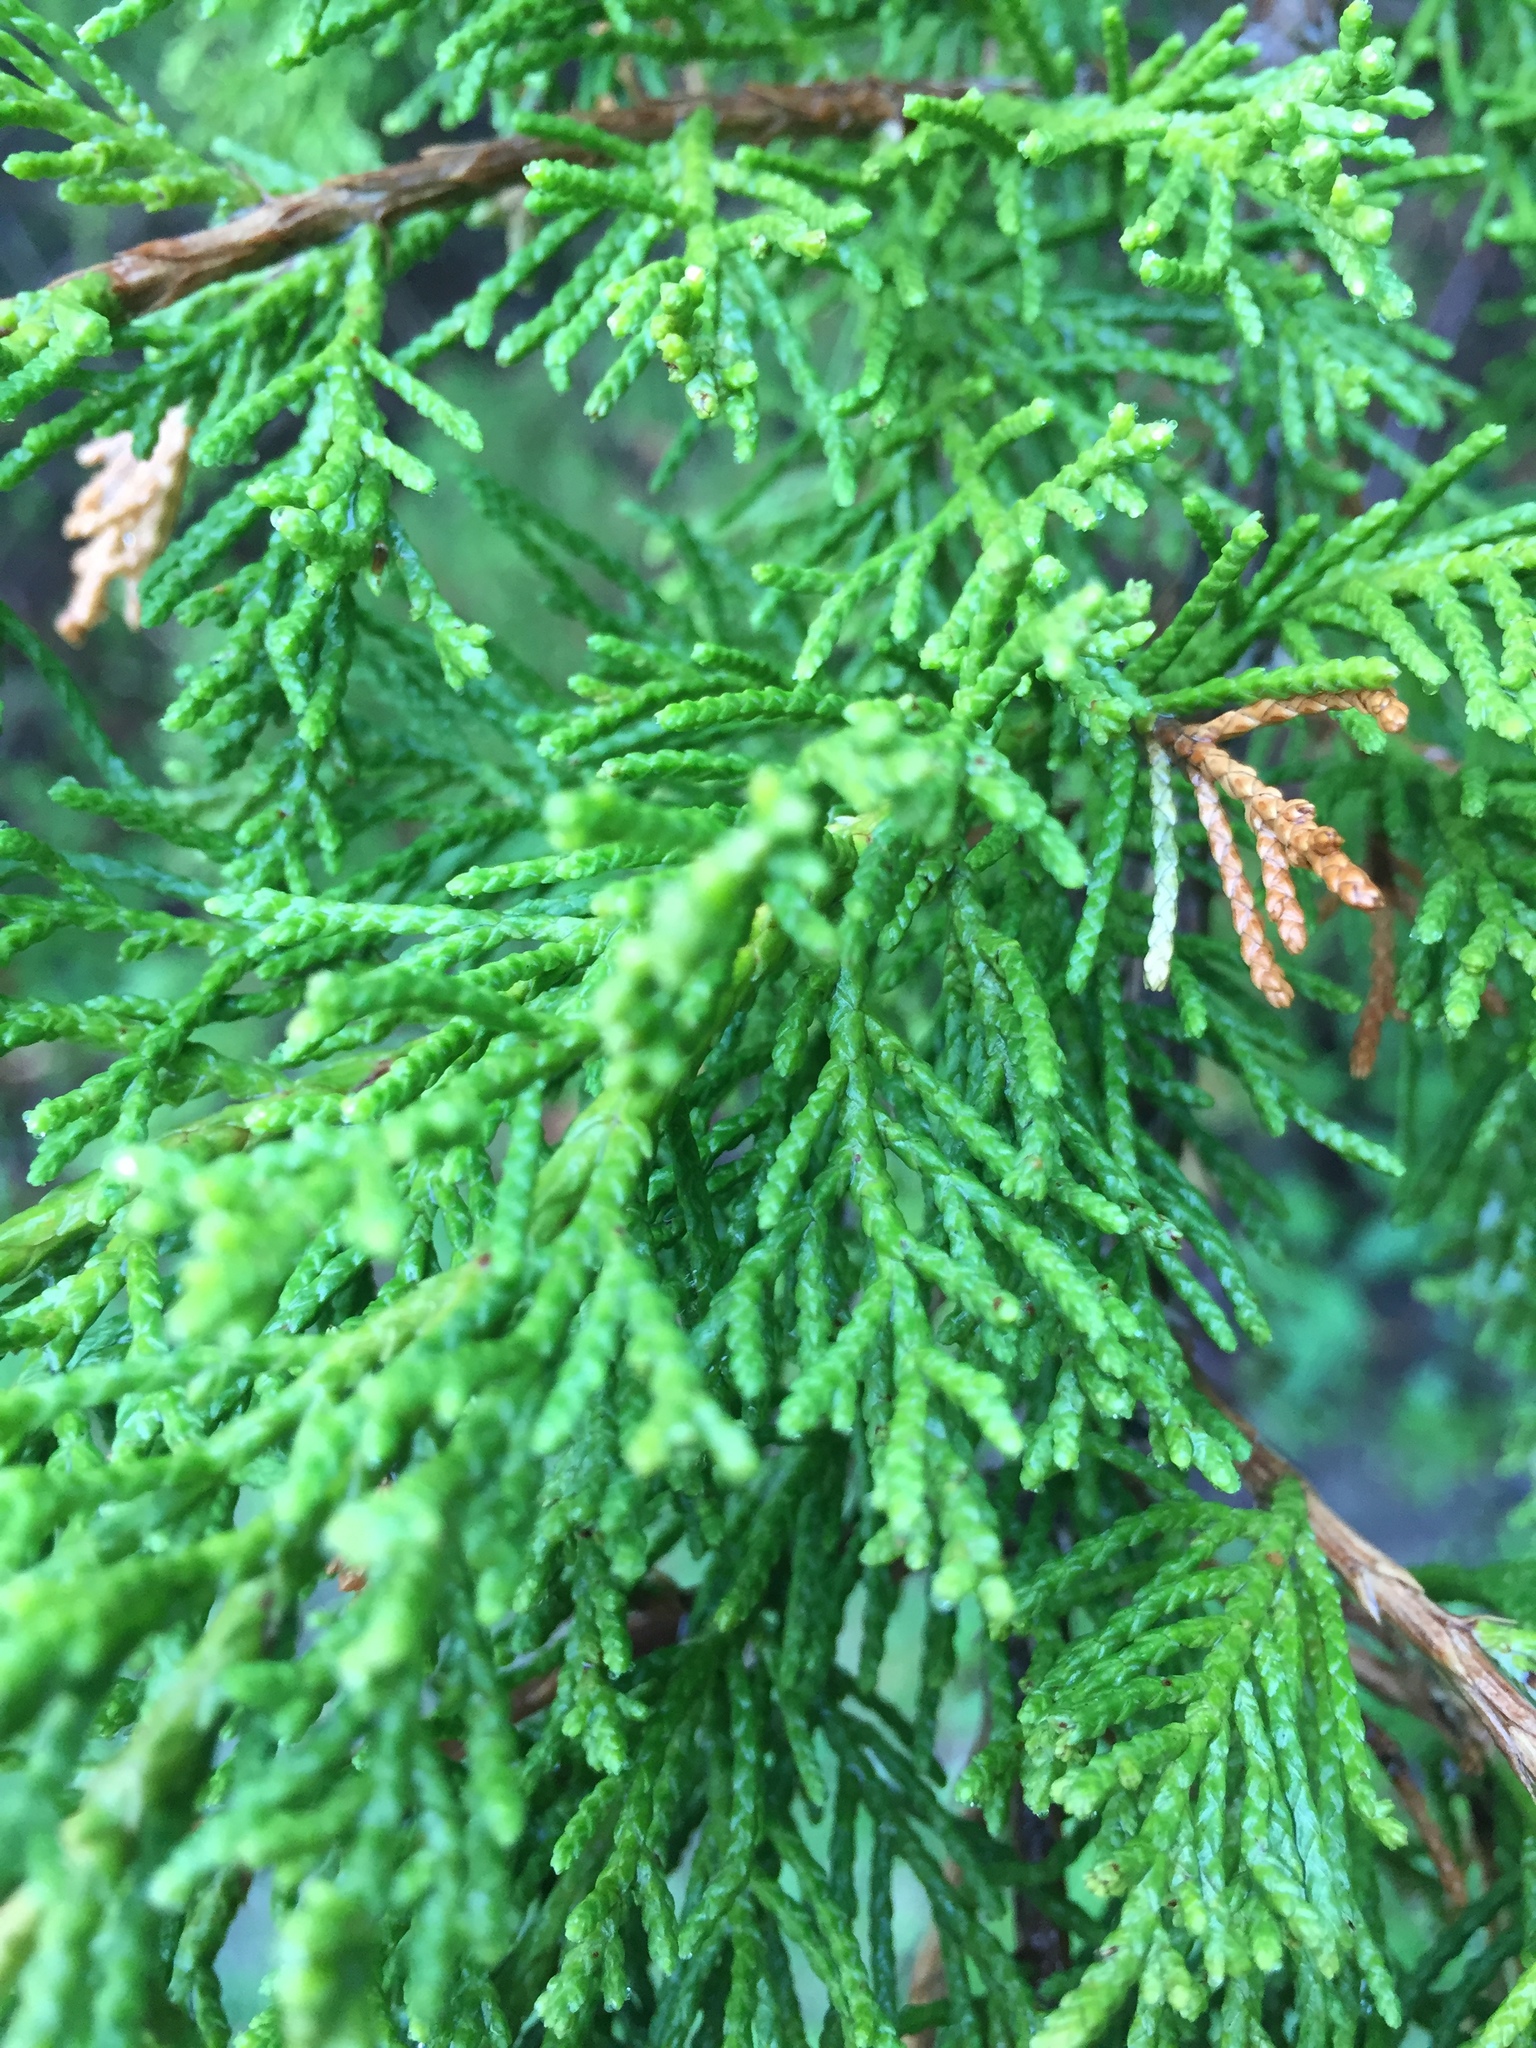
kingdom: Plantae
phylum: Tracheophyta
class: Pinopsida
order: Pinales
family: Cupressaceae
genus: Juniperus
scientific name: Juniperus virginiana
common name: Red juniper
